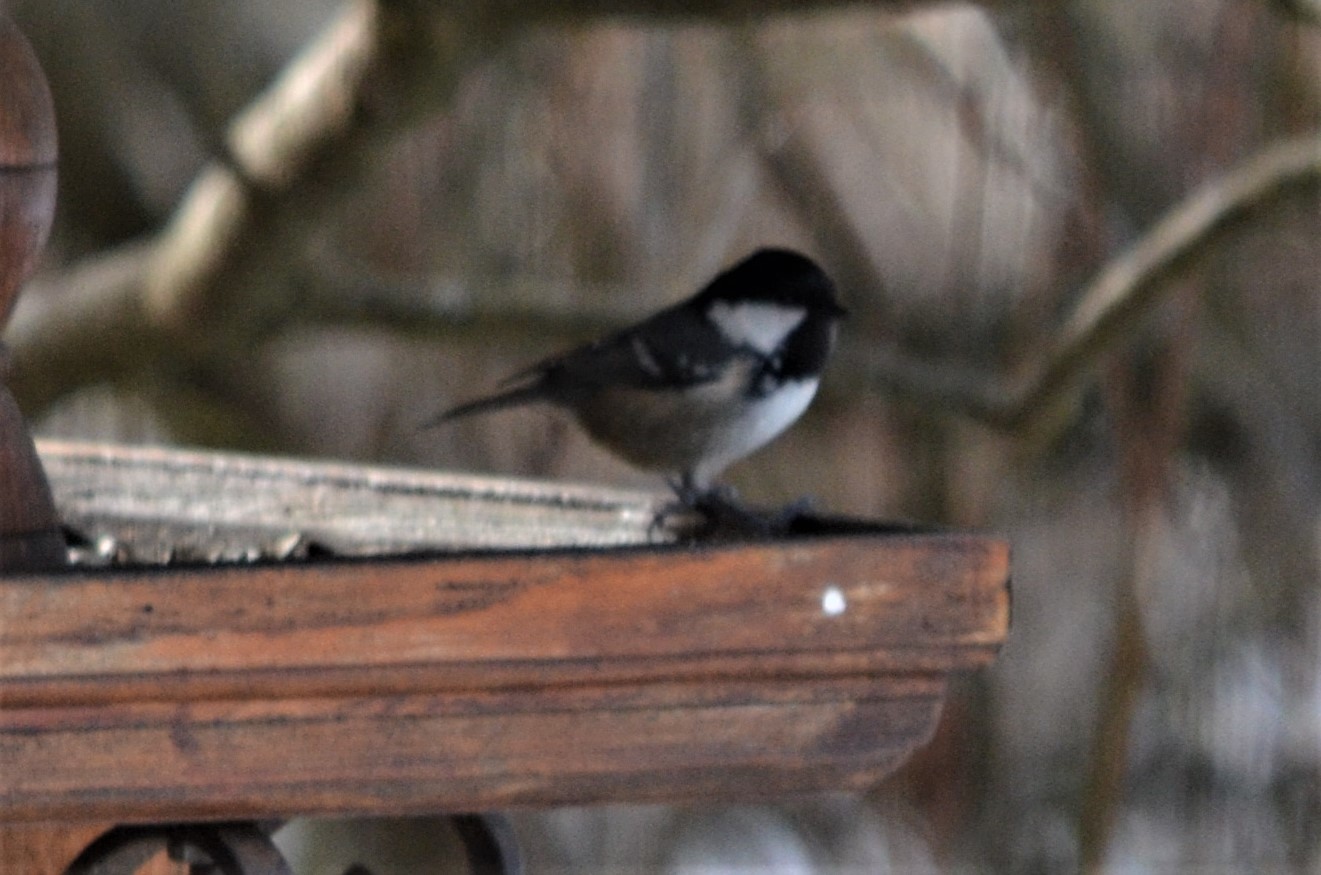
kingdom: Animalia
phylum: Chordata
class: Aves
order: Passeriformes
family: Paridae
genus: Periparus
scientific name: Periparus ater
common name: Coal tit
